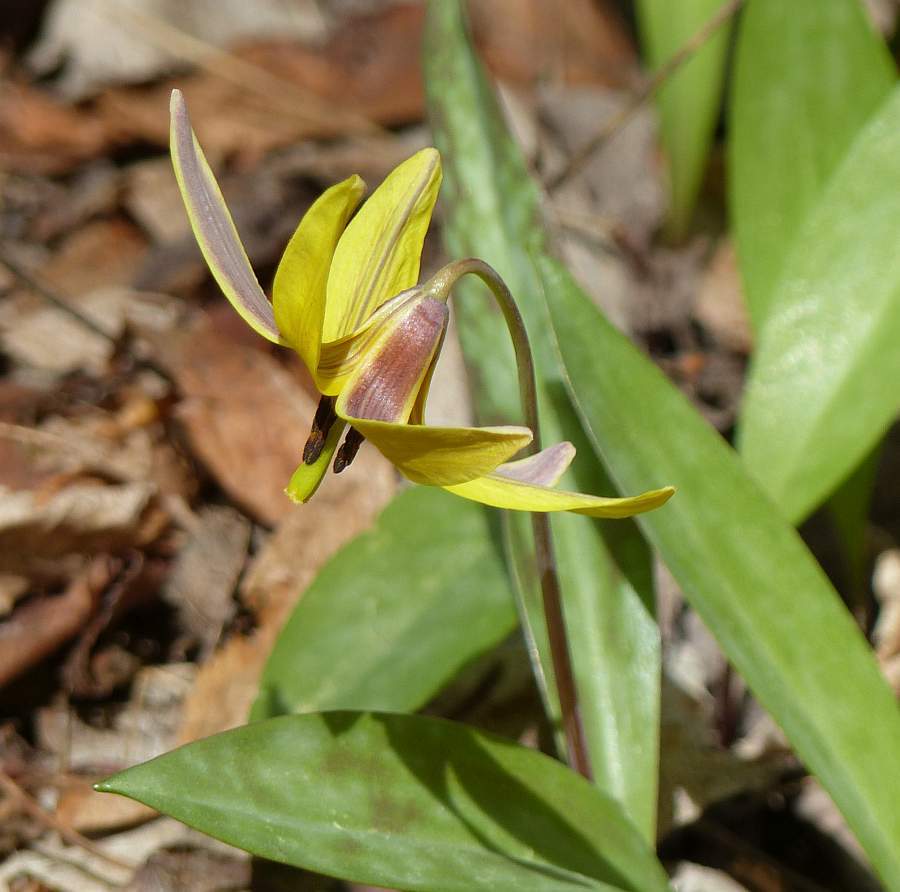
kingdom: Plantae
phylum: Tracheophyta
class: Liliopsida
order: Liliales
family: Liliaceae
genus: Erythronium
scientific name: Erythronium americanum
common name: Yellow adder's-tongue
